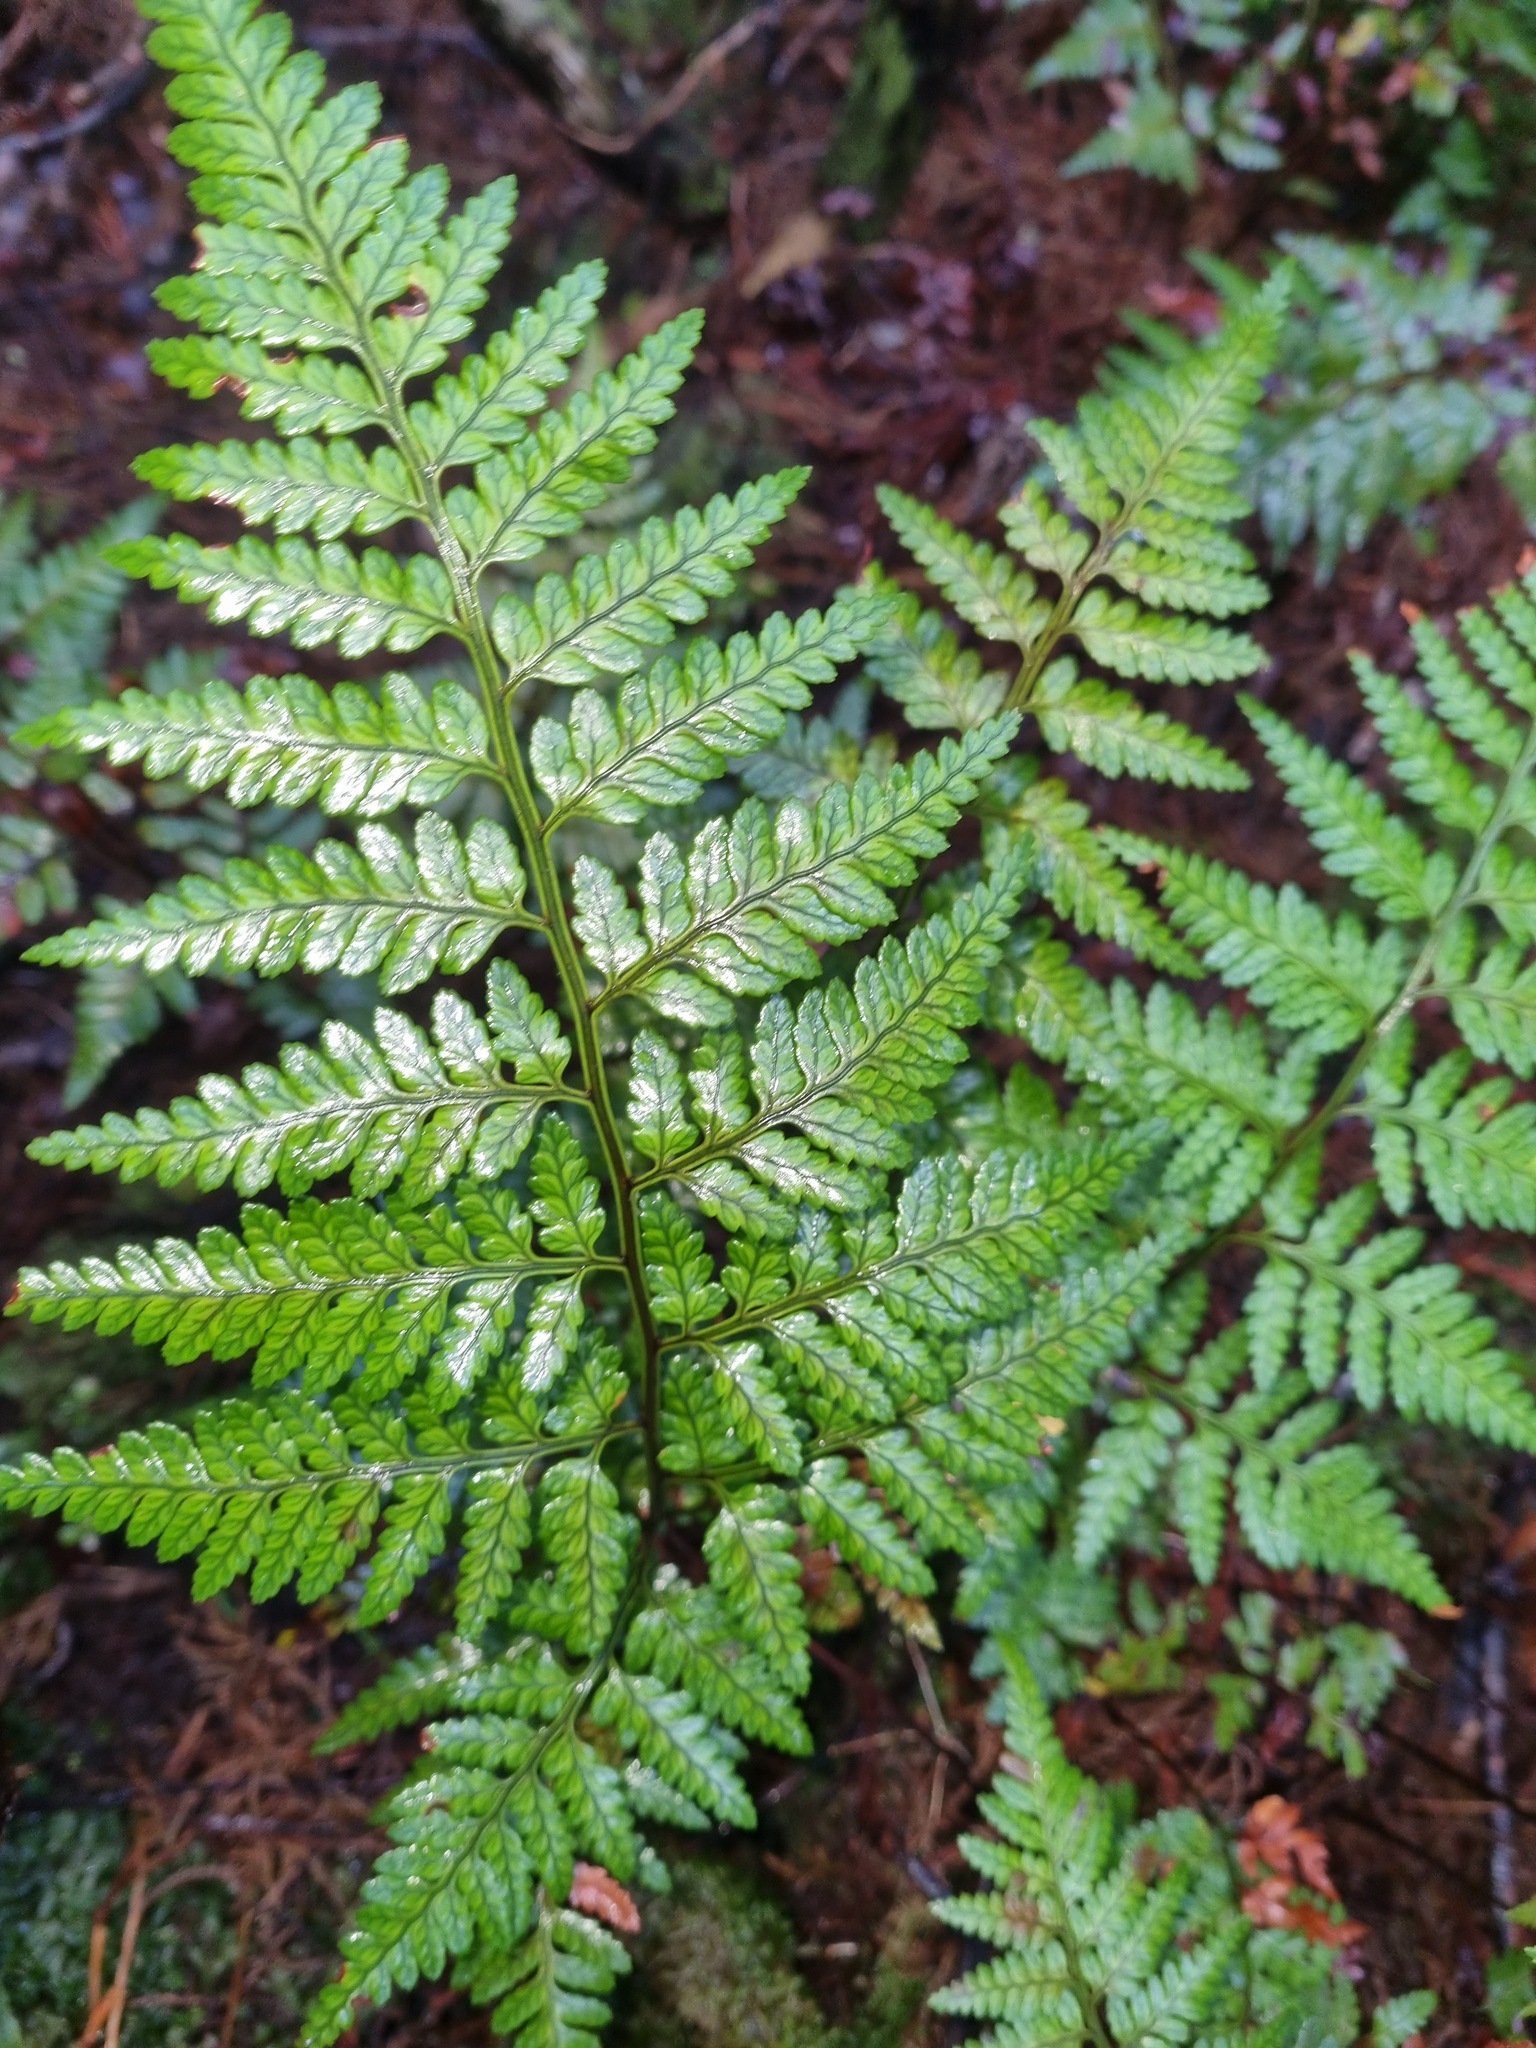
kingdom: Plantae
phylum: Tracheophyta
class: Polypodiopsida
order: Polypodiales
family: Dryopteridaceae
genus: Rumohra
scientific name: Rumohra adiantiformis
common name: Leather fern
